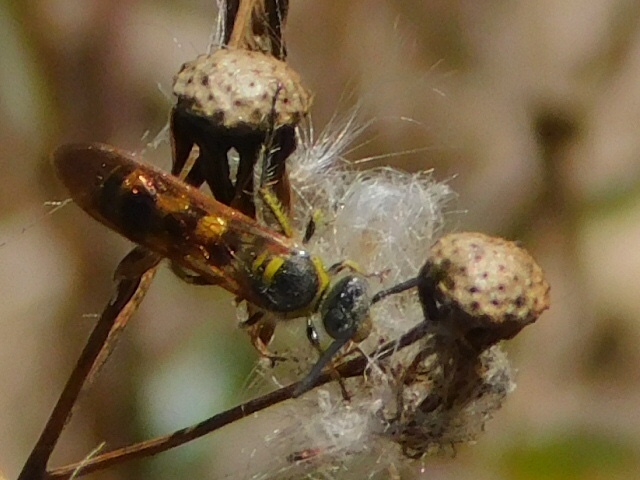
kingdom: Animalia
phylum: Arthropoda
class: Insecta
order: Hymenoptera
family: Scoliidae
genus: Dielis
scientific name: Dielis
